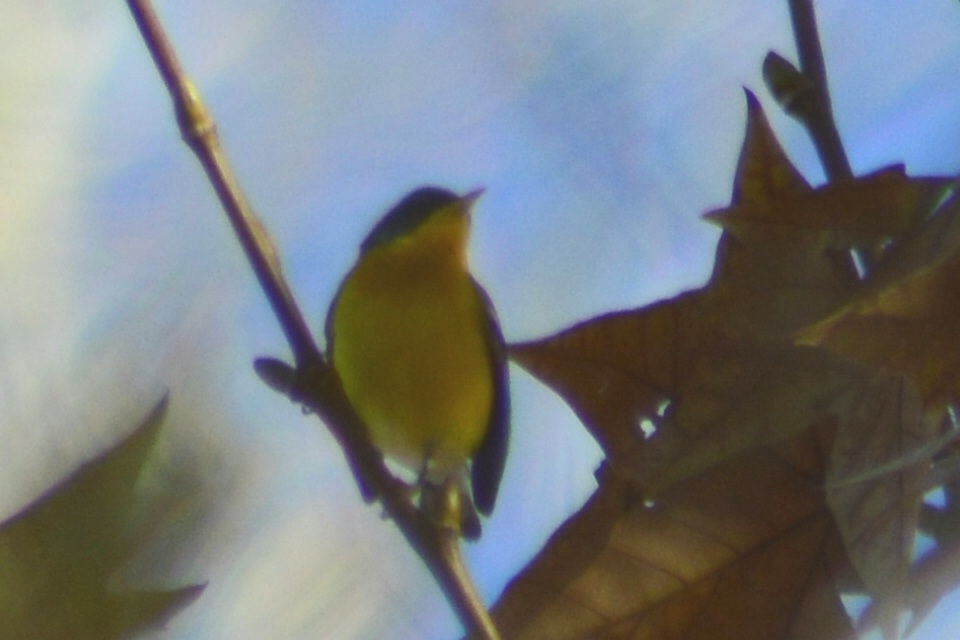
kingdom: Animalia
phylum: Chordata
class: Aves
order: Passeriformes
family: Parulidae
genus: Setophaga
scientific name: Setophaga pitiayumi
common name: Tropical parula
